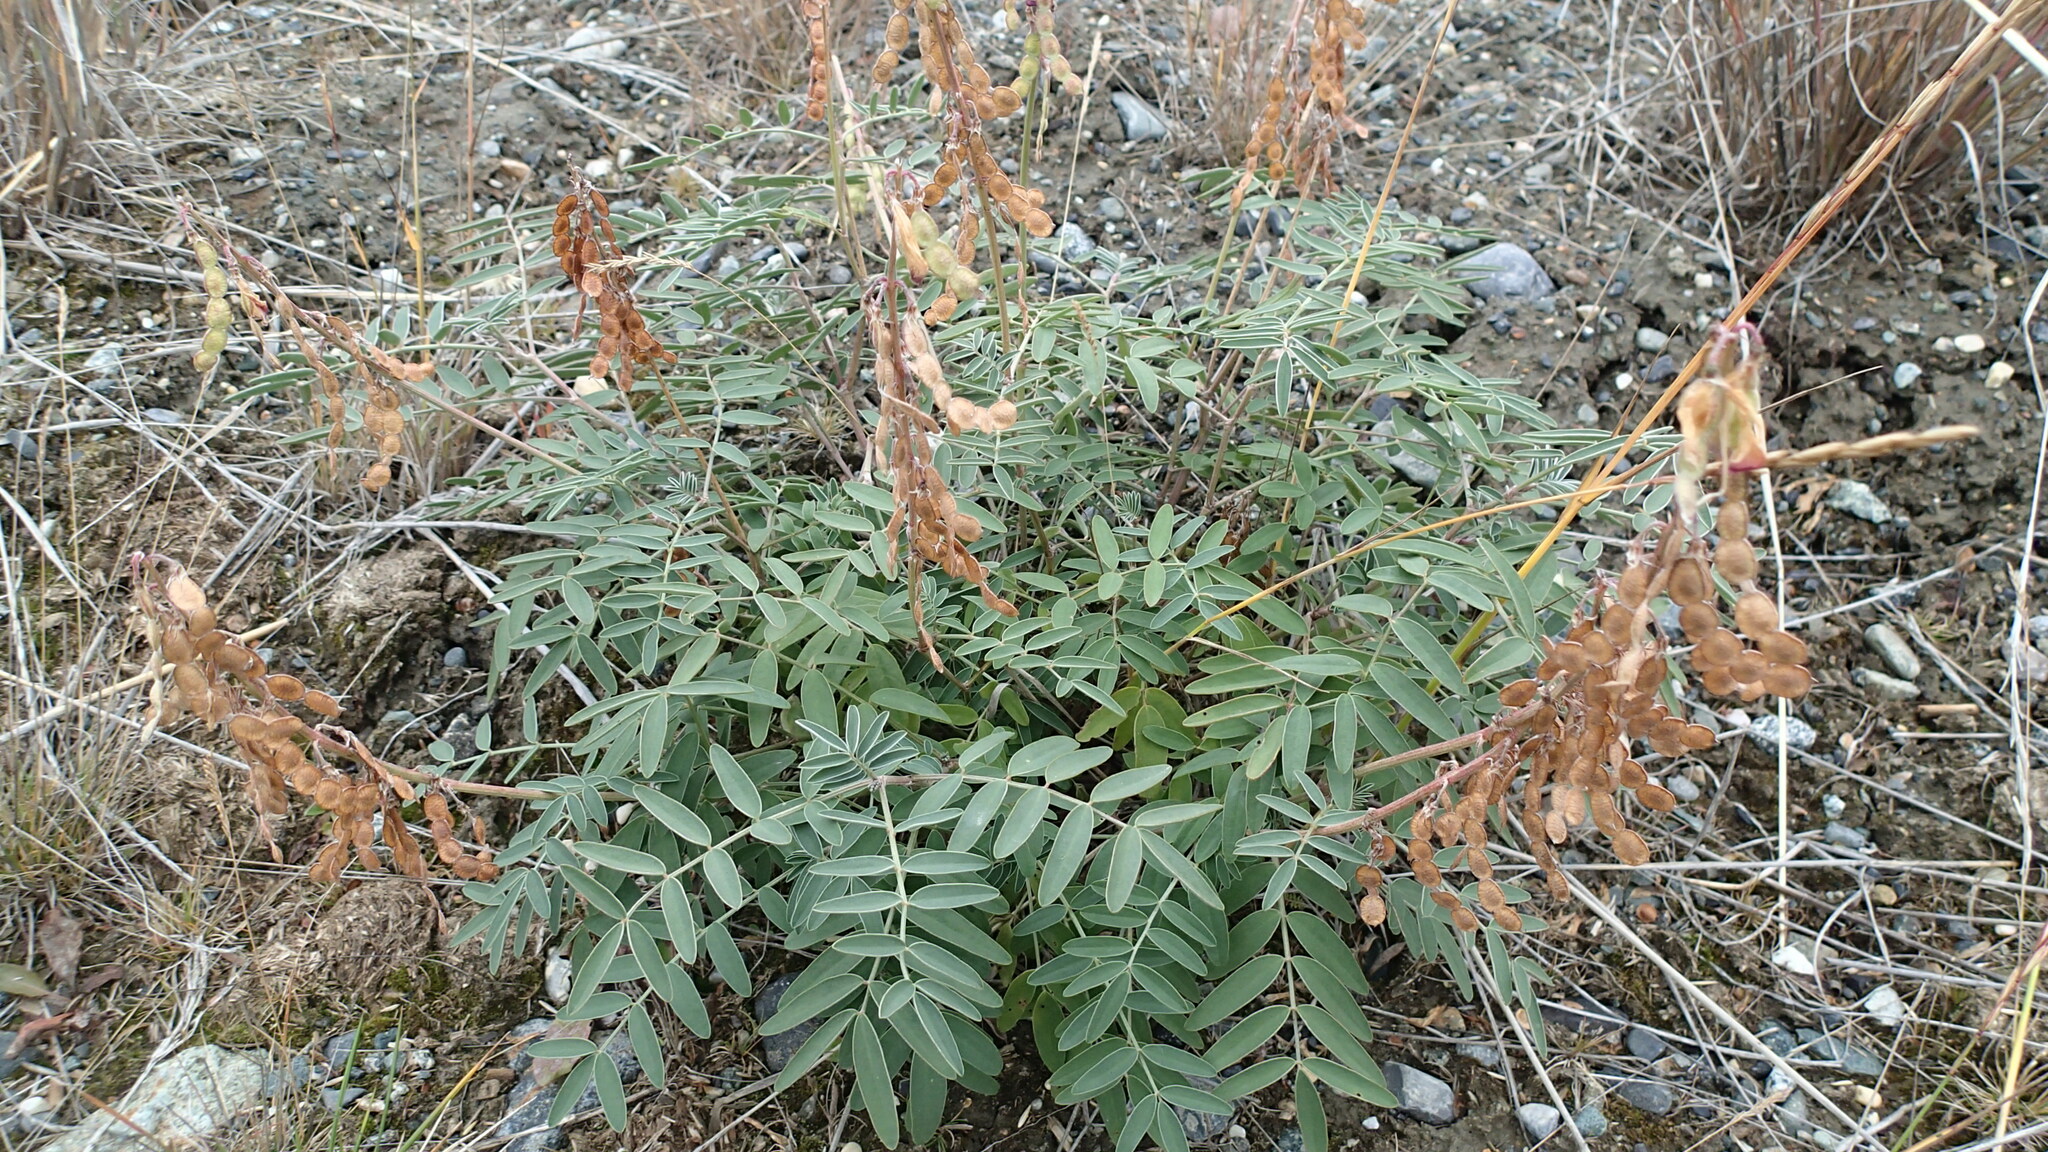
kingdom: Plantae
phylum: Tracheophyta
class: Magnoliopsida
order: Fabales
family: Fabaceae
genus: Hedysarum
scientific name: Hedysarum boreale
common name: Northern sweet-vetch
